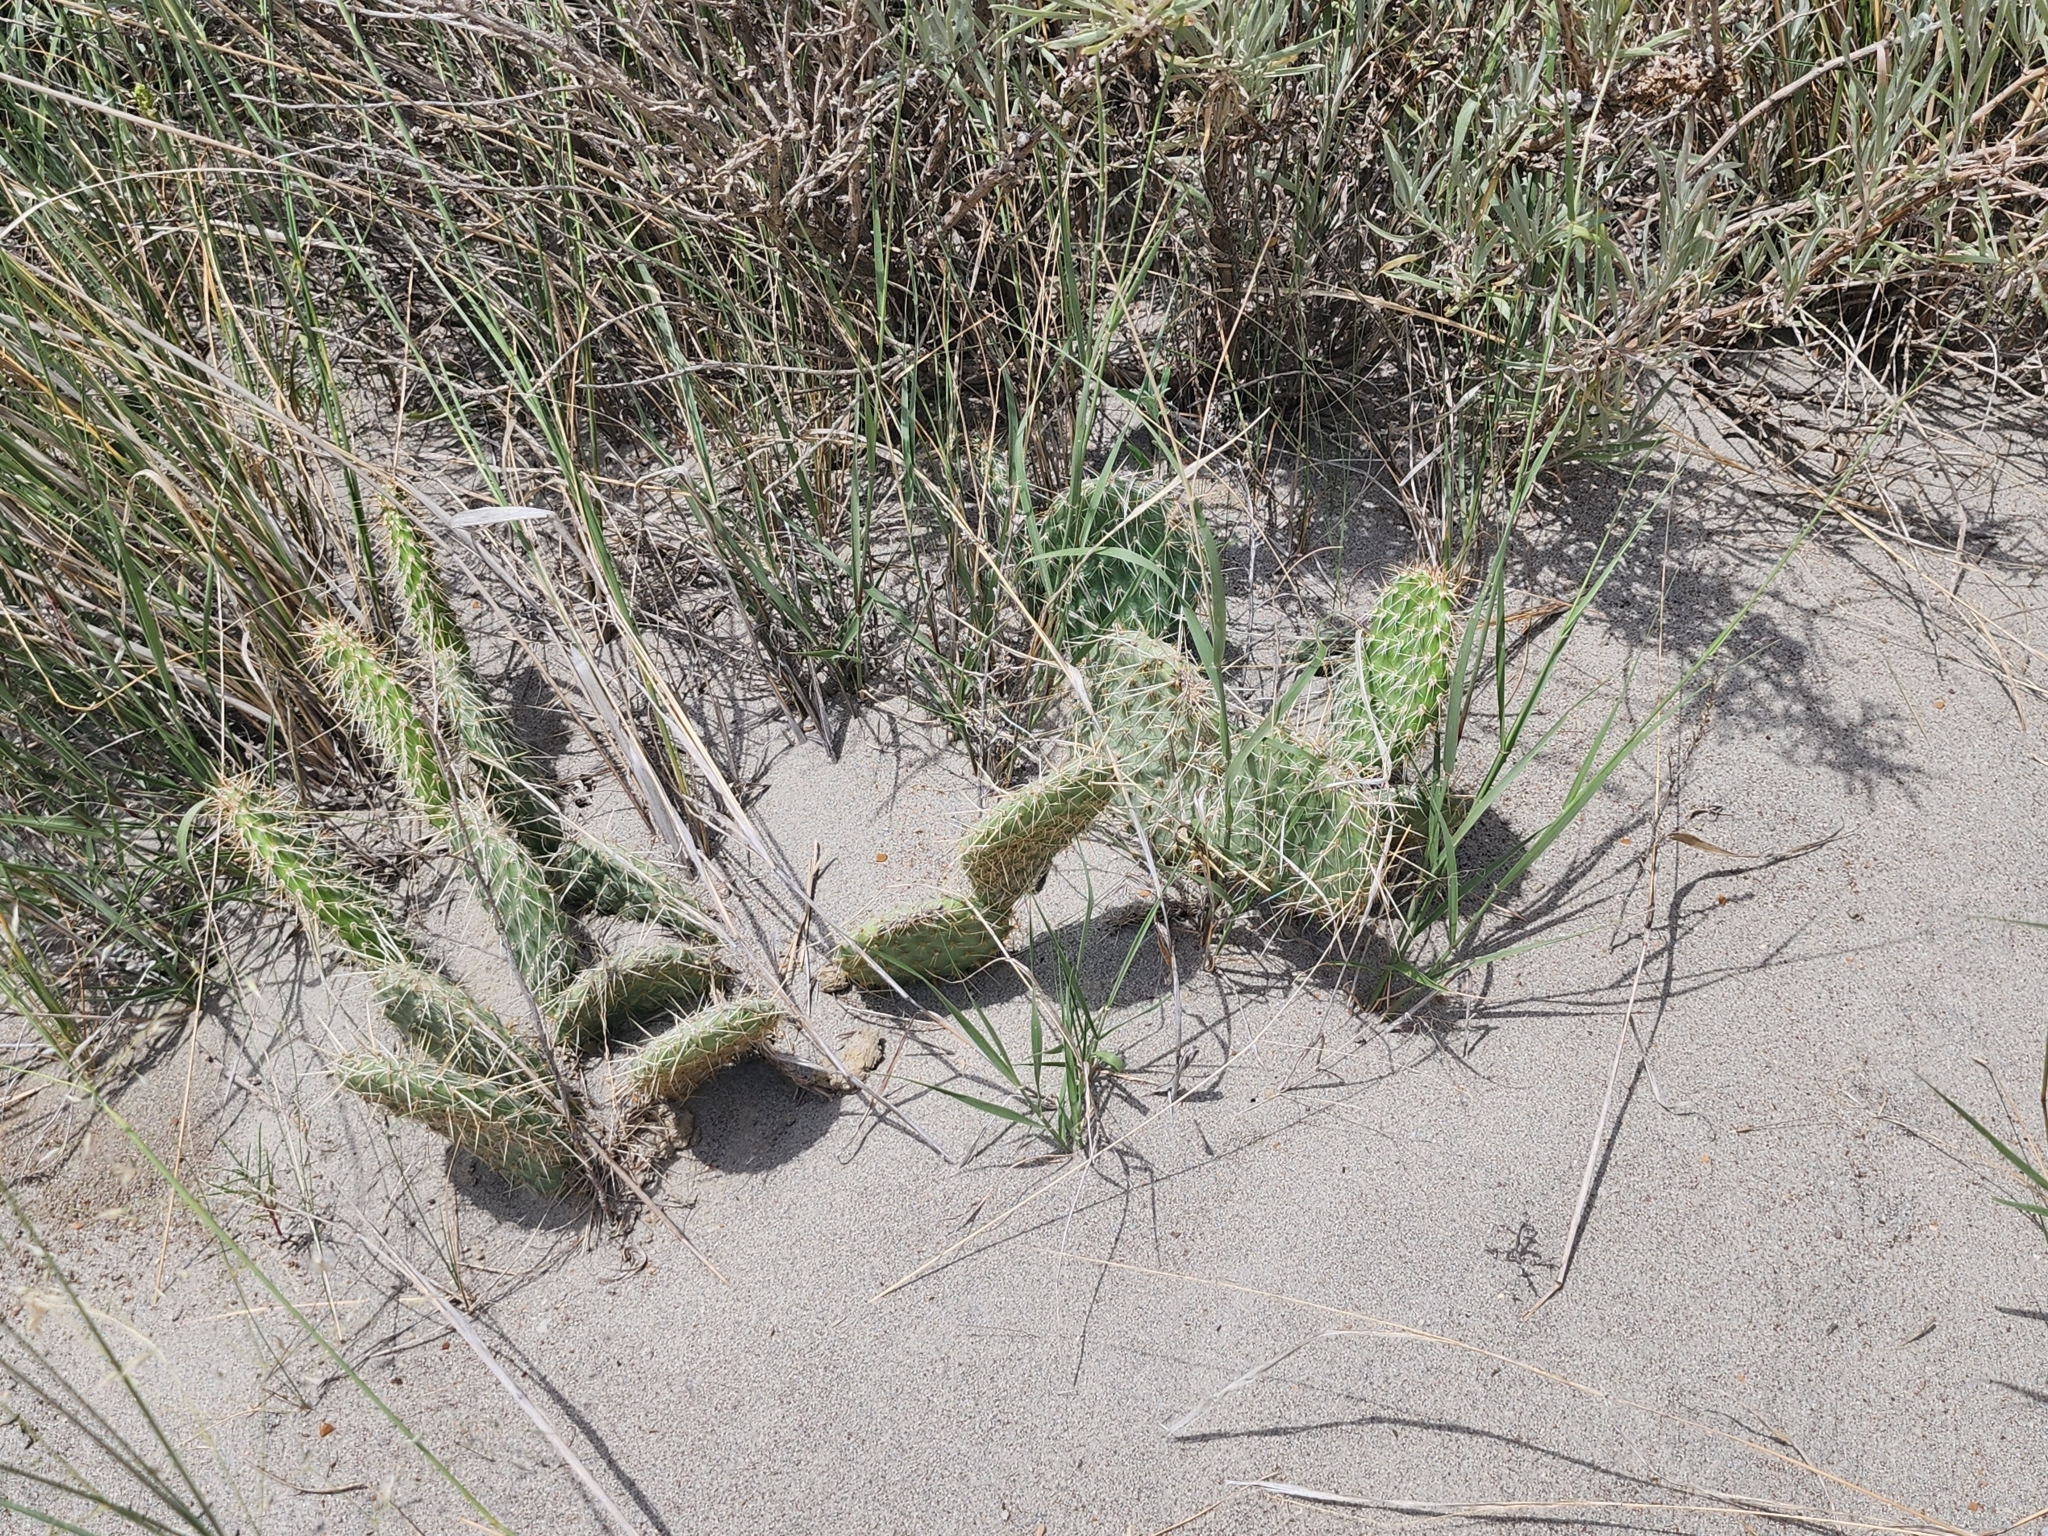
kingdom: Plantae
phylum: Tracheophyta
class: Magnoliopsida
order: Caryophyllales
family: Cactaceae
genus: Opuntia
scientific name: Opuntia polyacantha
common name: Plains prickly-pear
